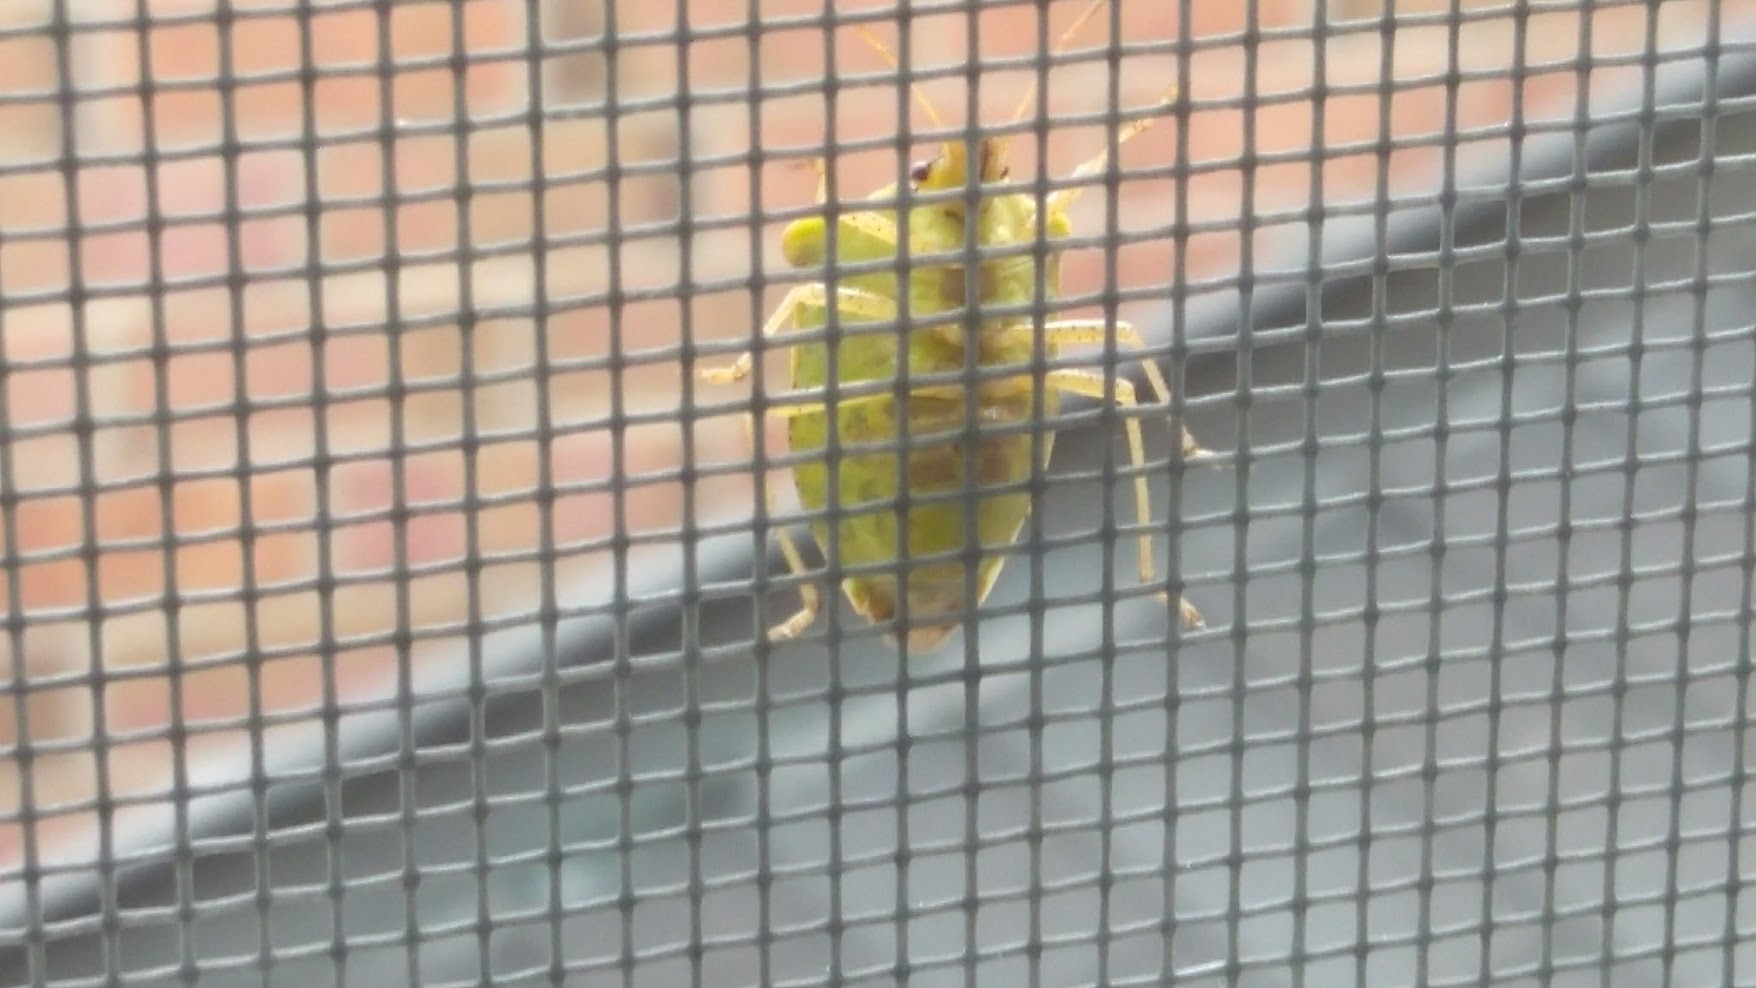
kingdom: Animalia
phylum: Arthropoda
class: Insecta
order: Hemiptera
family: Pentatomidae
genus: Euschistus
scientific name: Euschistus
